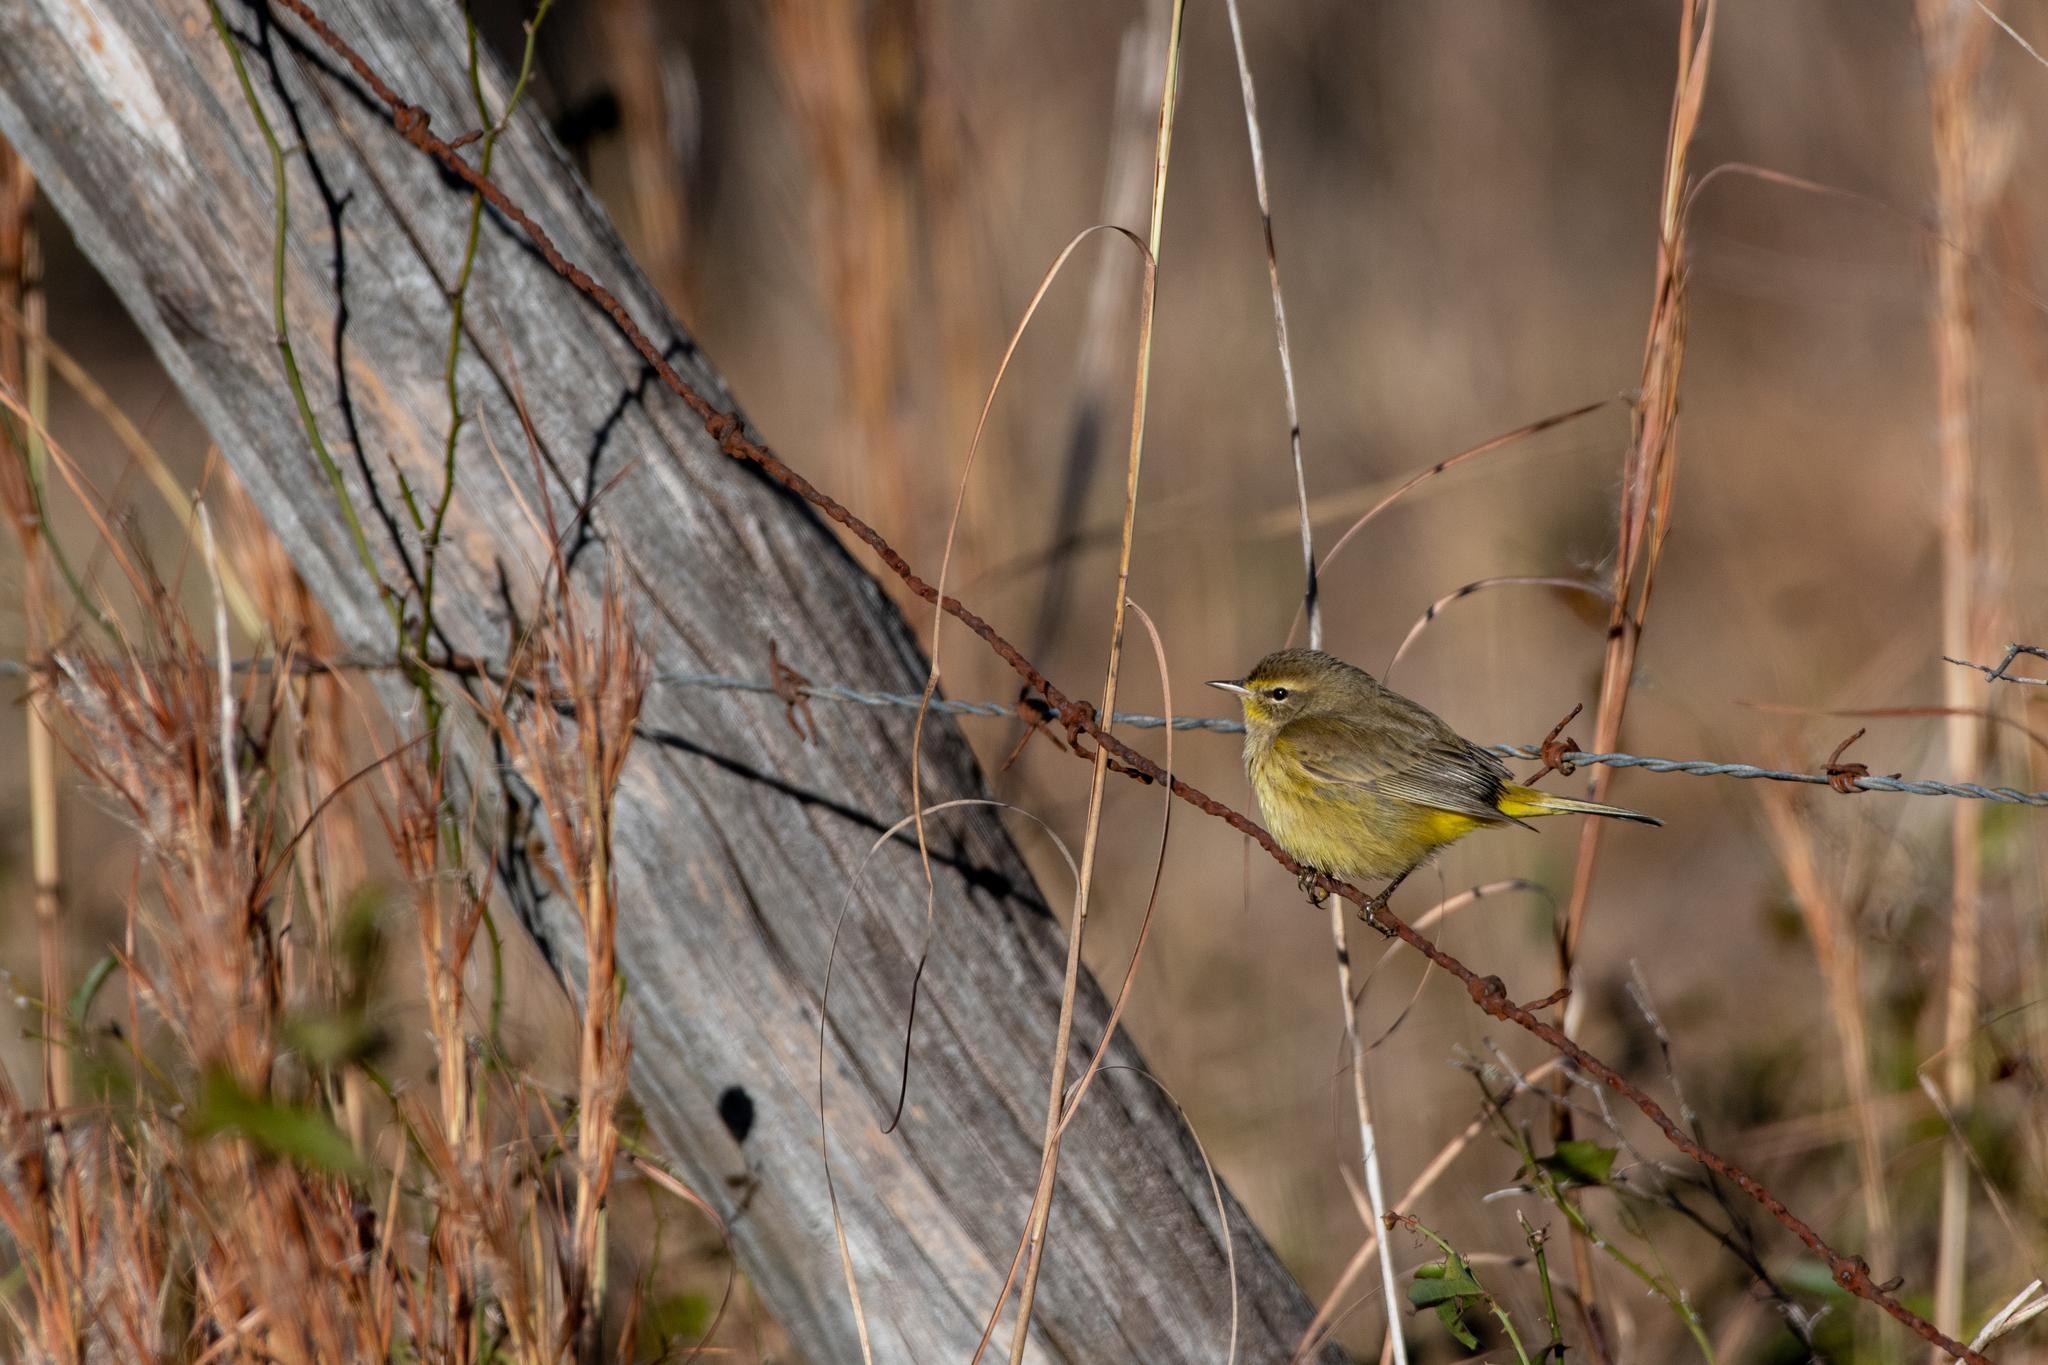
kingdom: Animalia
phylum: Chordata
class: Aves
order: Passeriformes
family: Parulidae
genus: Setophaga
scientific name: Setophaga palmarum
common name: Palm warbler
